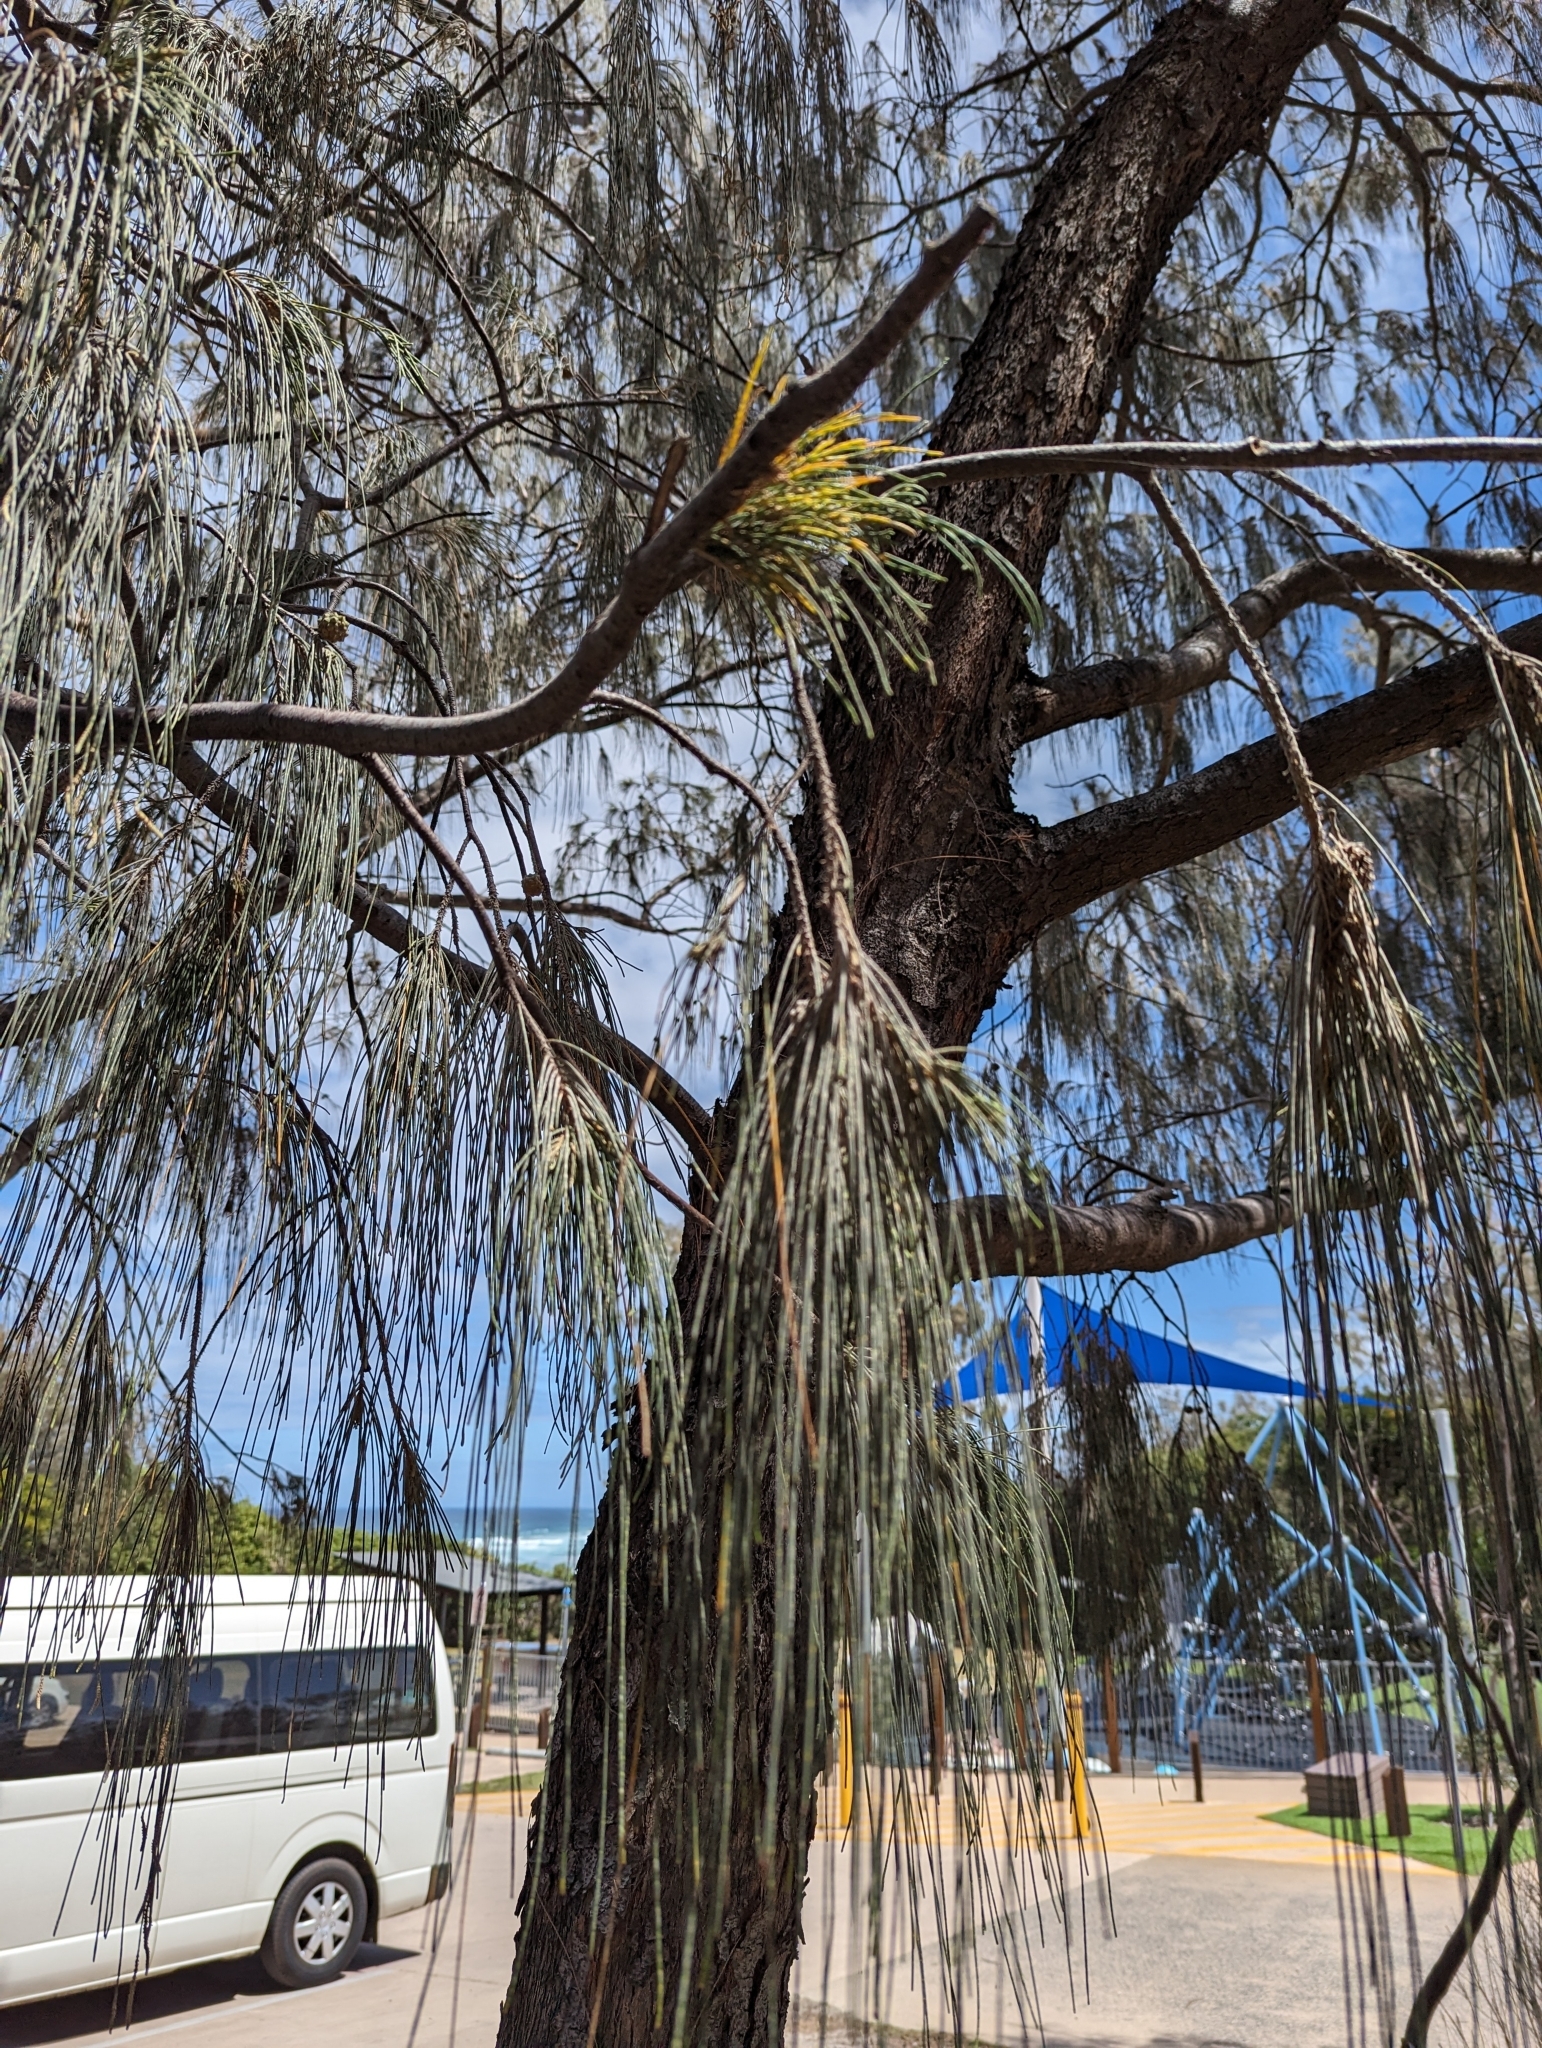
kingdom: Plantae
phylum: Tracheophyta
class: Magnoliopsida
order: Fagales
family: Casuarinaceae
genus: Casuarina
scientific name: Casuarina equisetifolia
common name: Beach sheoak
